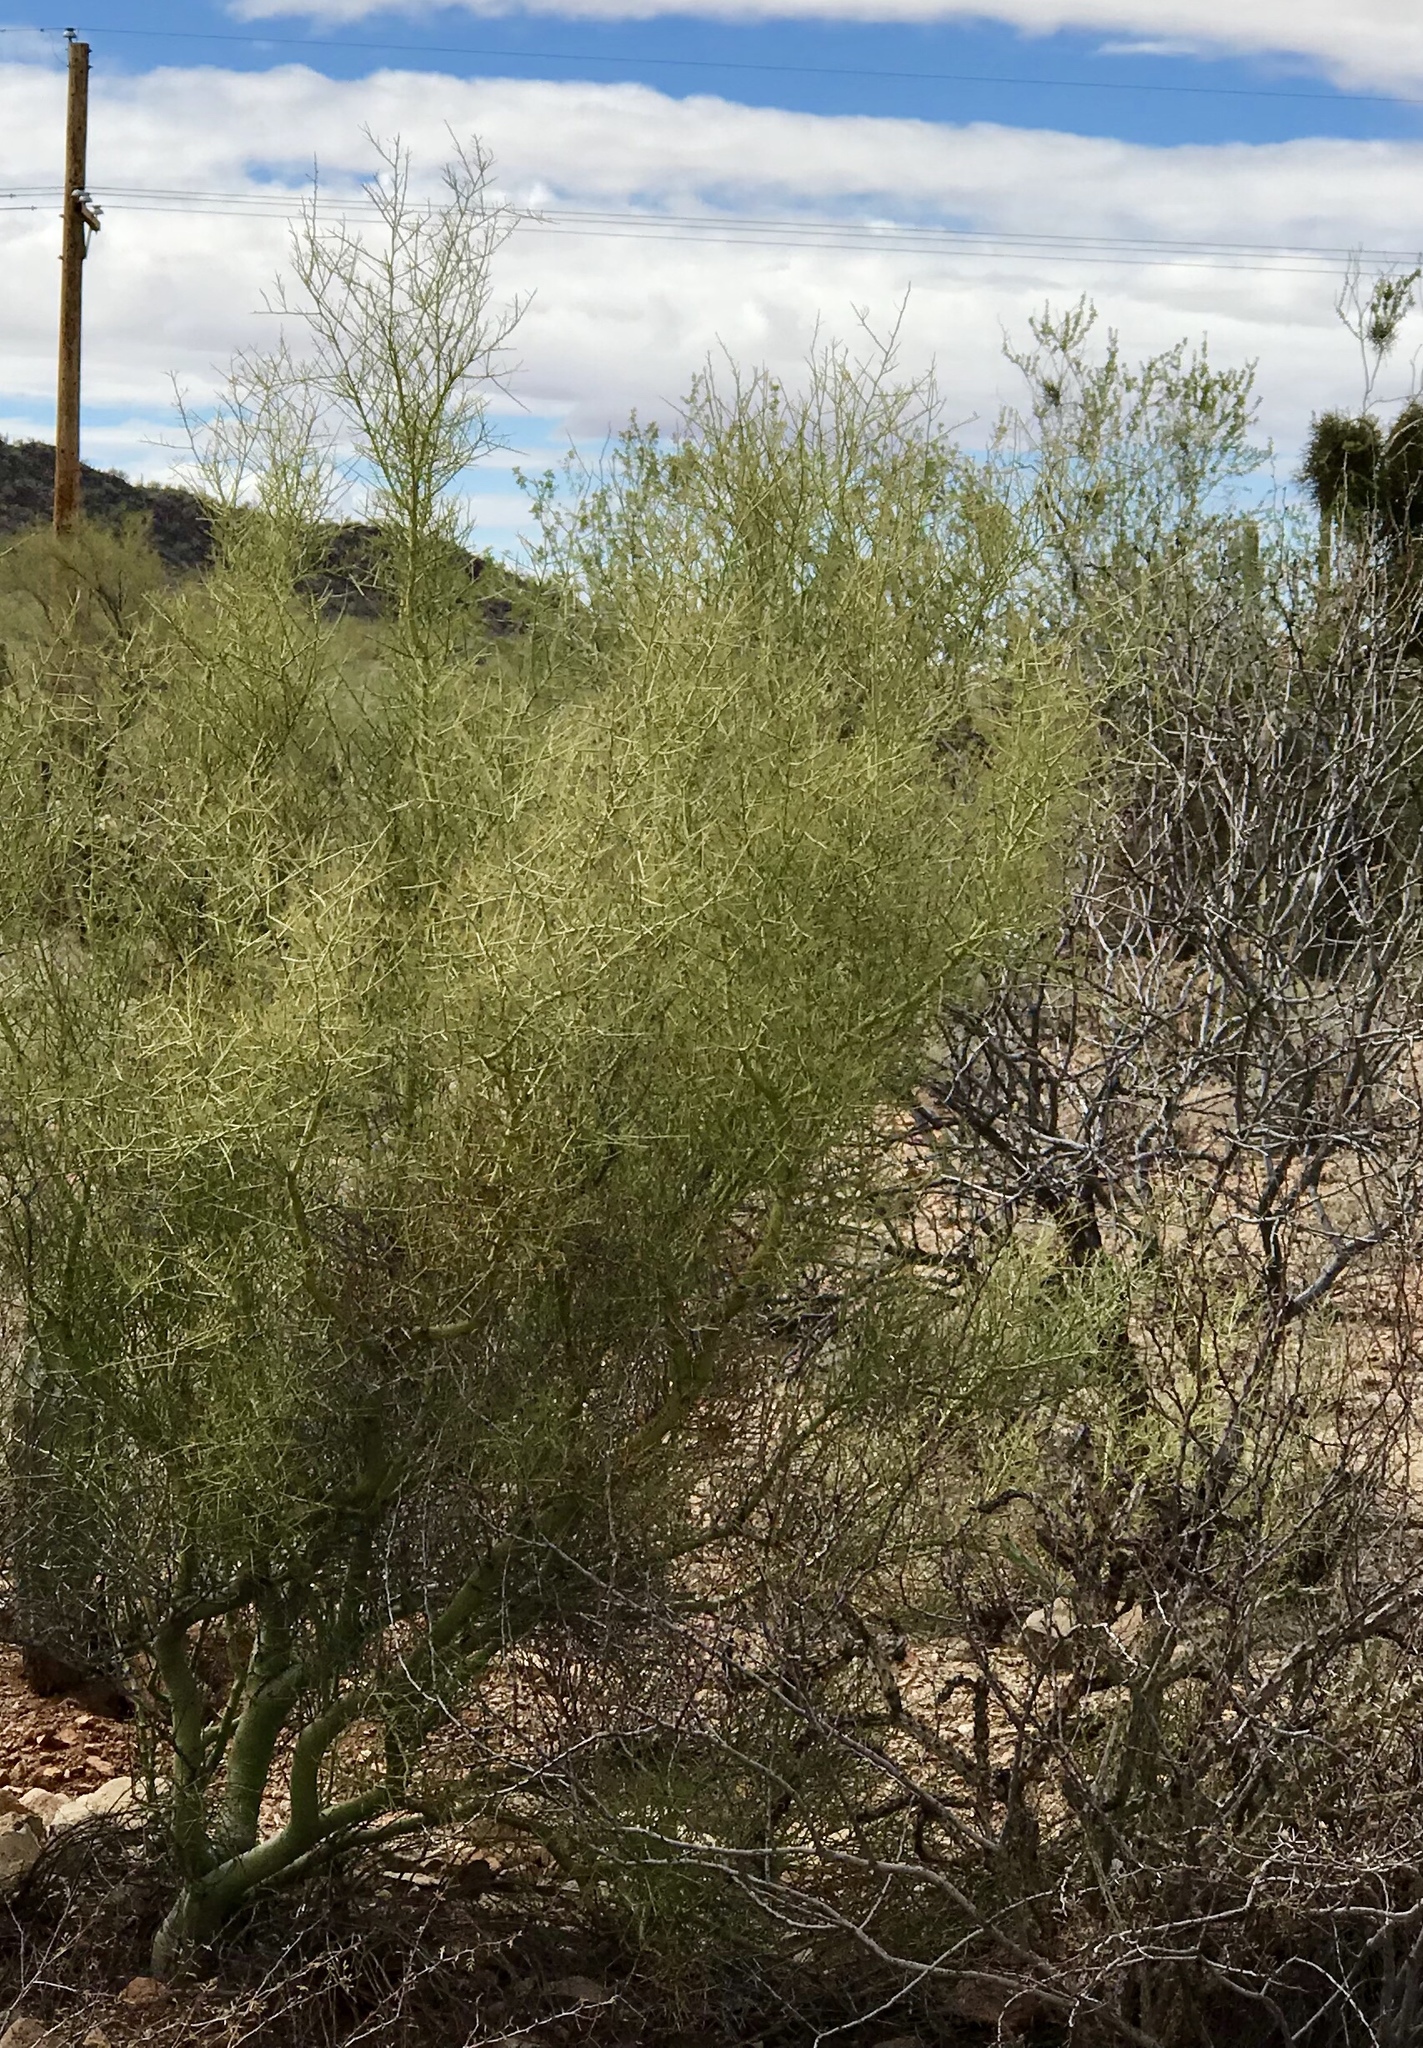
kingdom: Plantae
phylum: Tracheophyta
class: Magnoliopsida
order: Fabales
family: Fabaceae
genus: Parkinsonia
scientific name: Parkinsonia microphylla
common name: Yellow paloverde
